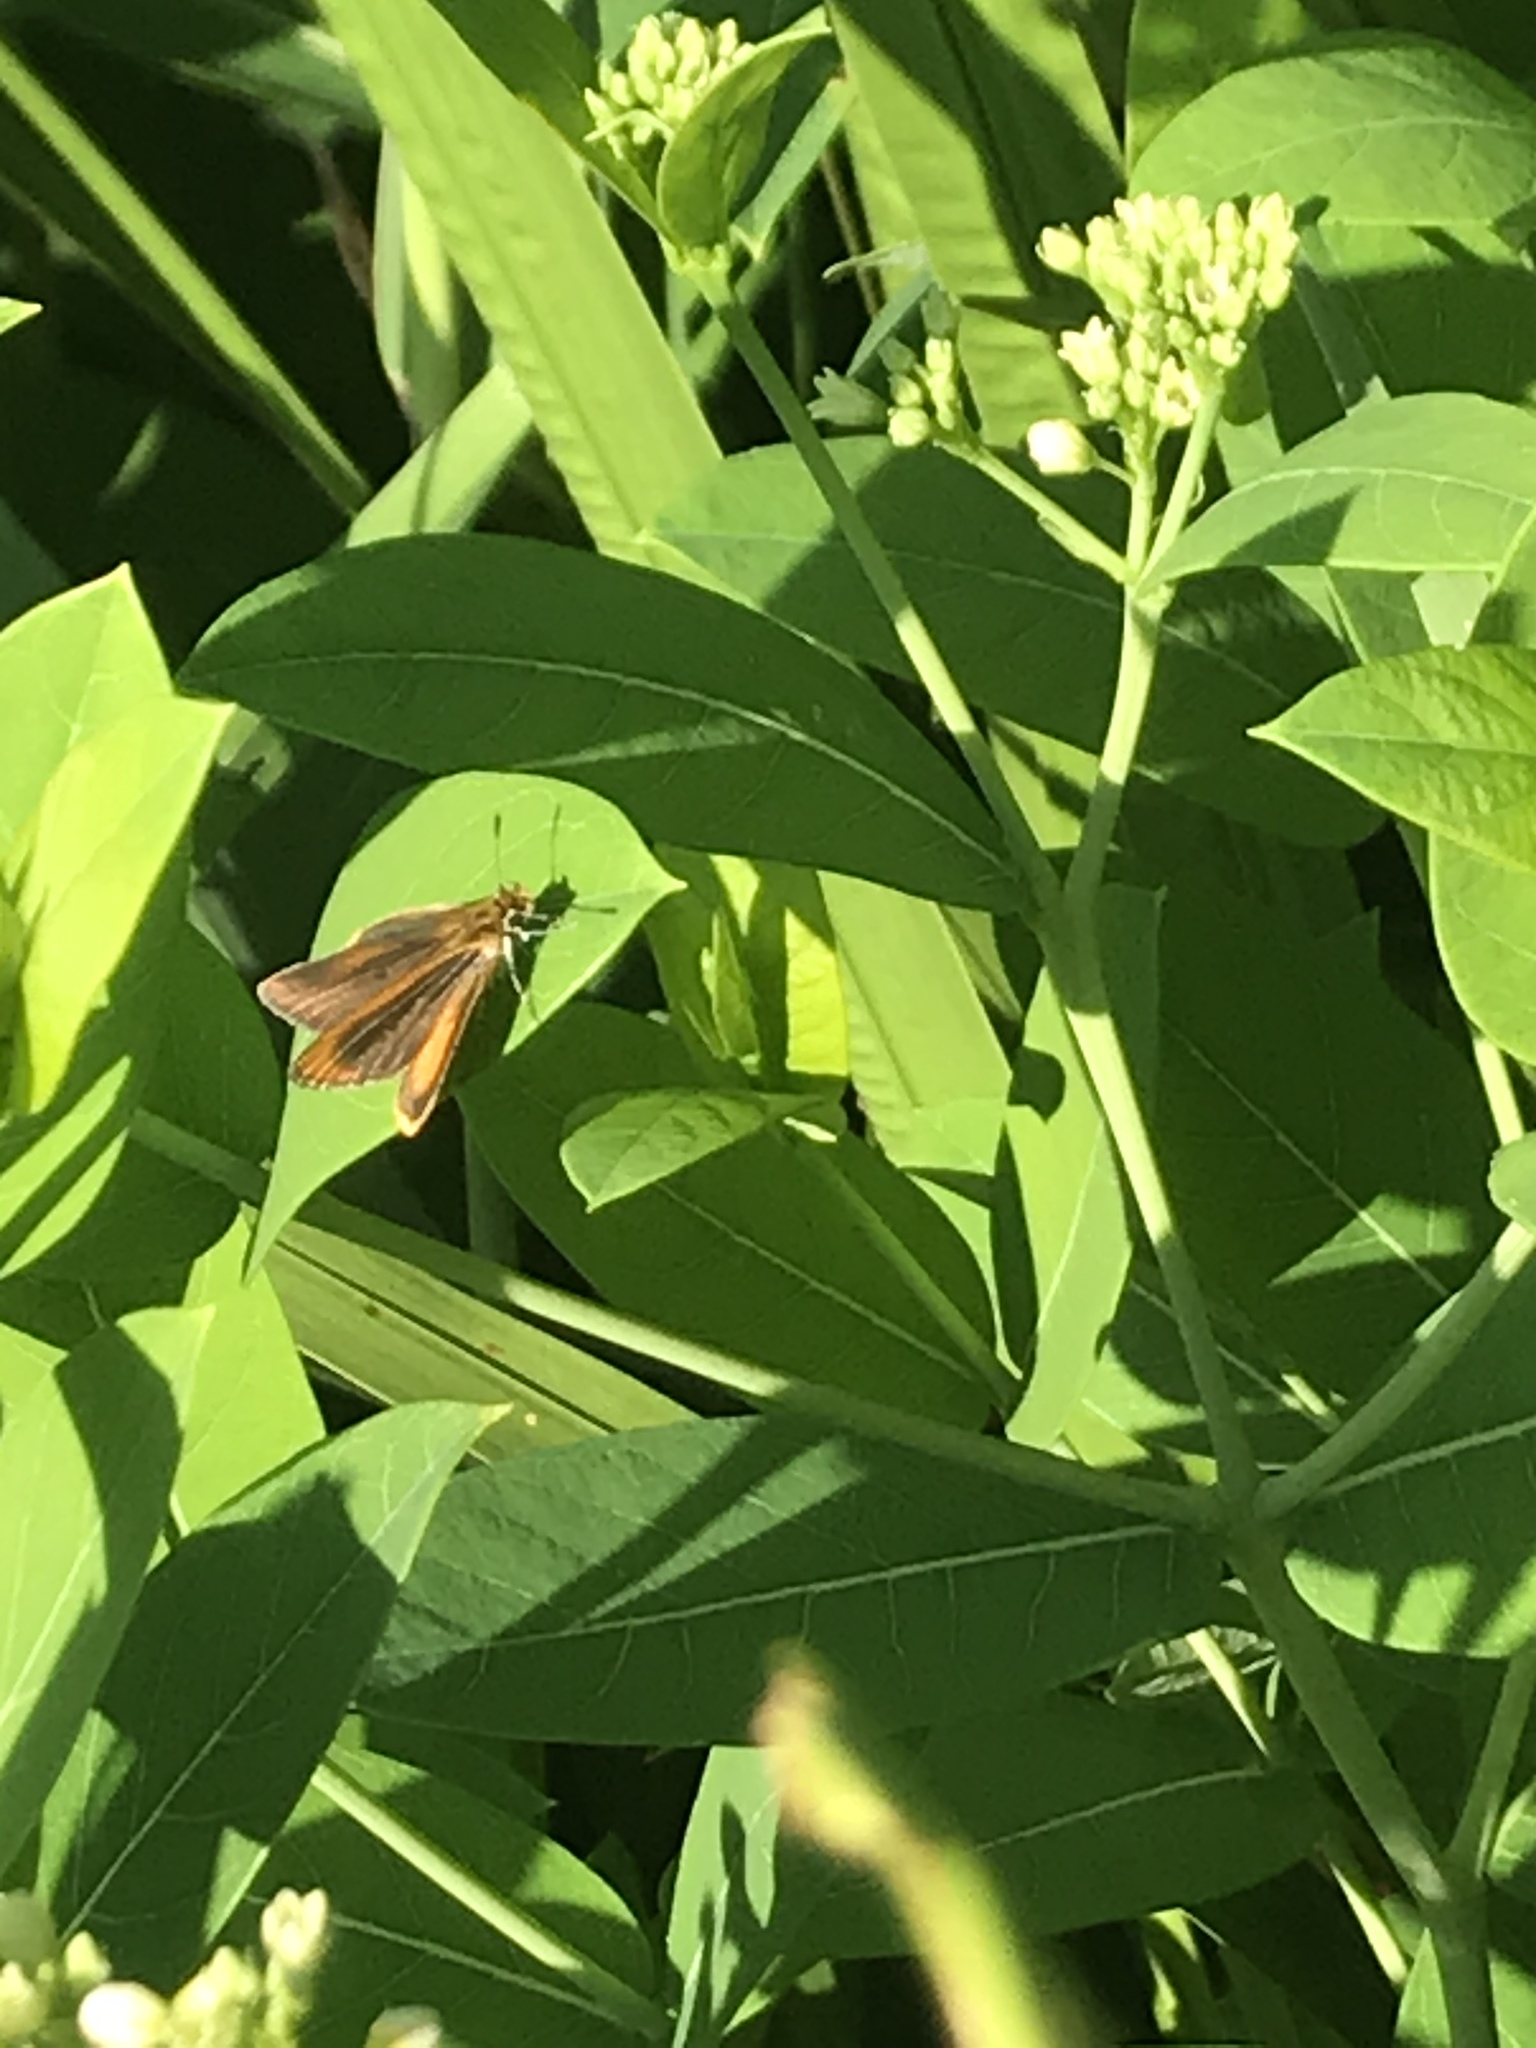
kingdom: Animalia
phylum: Arthropoda
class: Insecta
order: Lepidoptera
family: Hesperiidae
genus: Ancyloxypha
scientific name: Ancyloxypha numitor
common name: Least skipper
